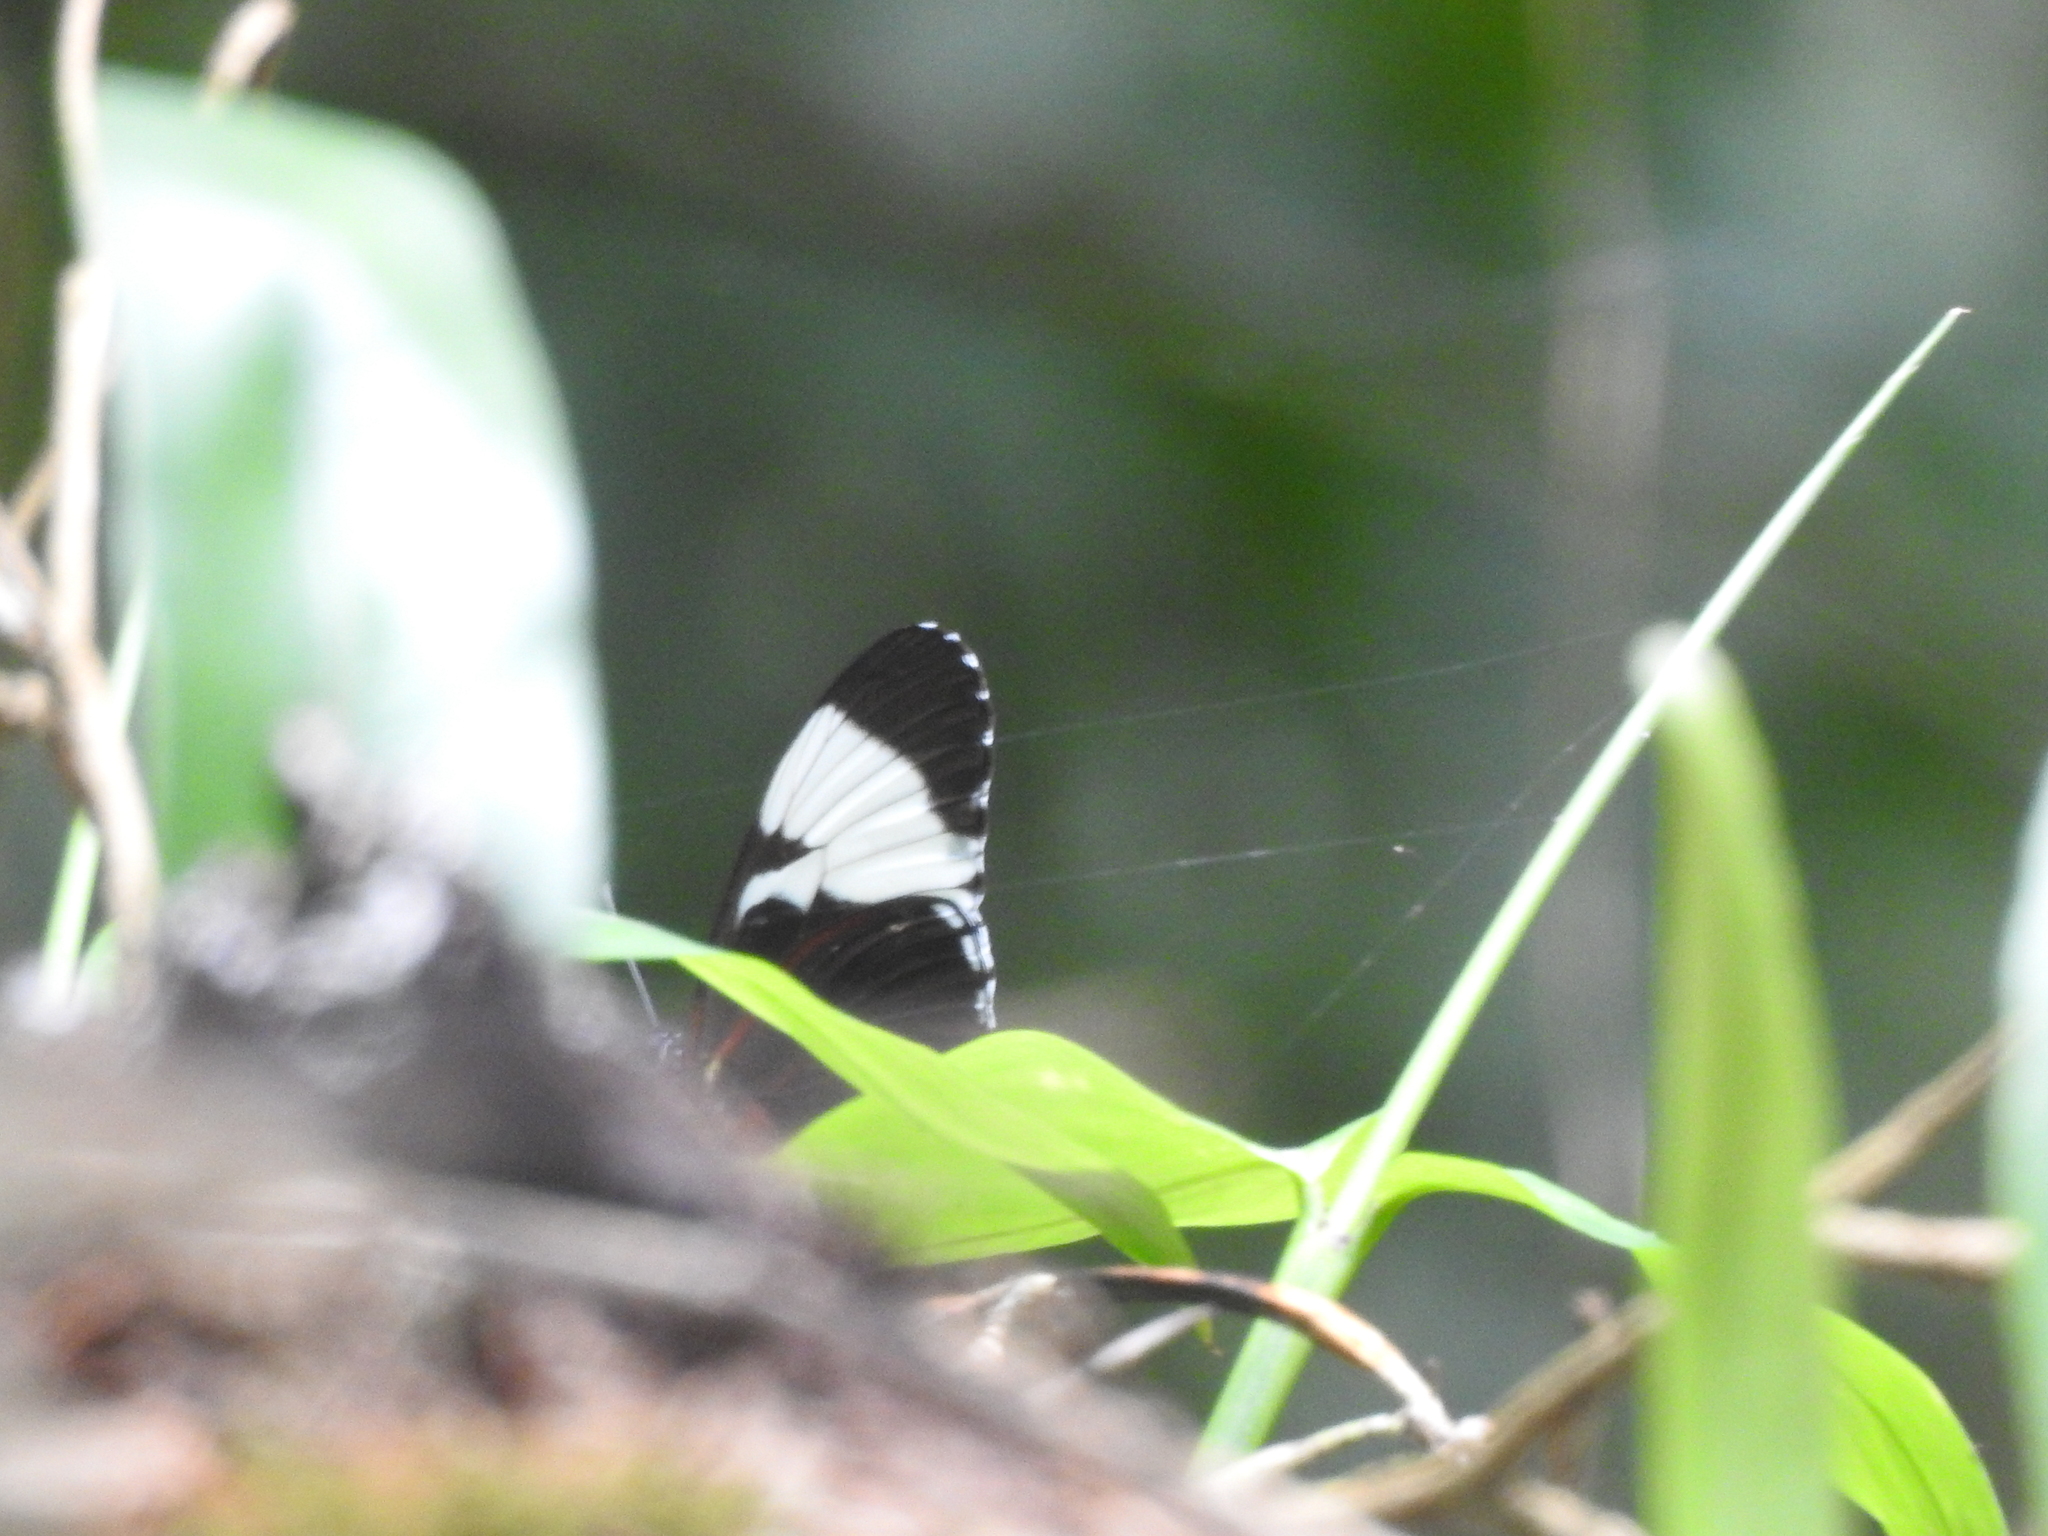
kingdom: Animalia
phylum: Arthropoda
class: Insecta
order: Lepidoptera
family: Nymphalidae
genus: Heliconius
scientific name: Heliconius cydno
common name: Cydno longwing
